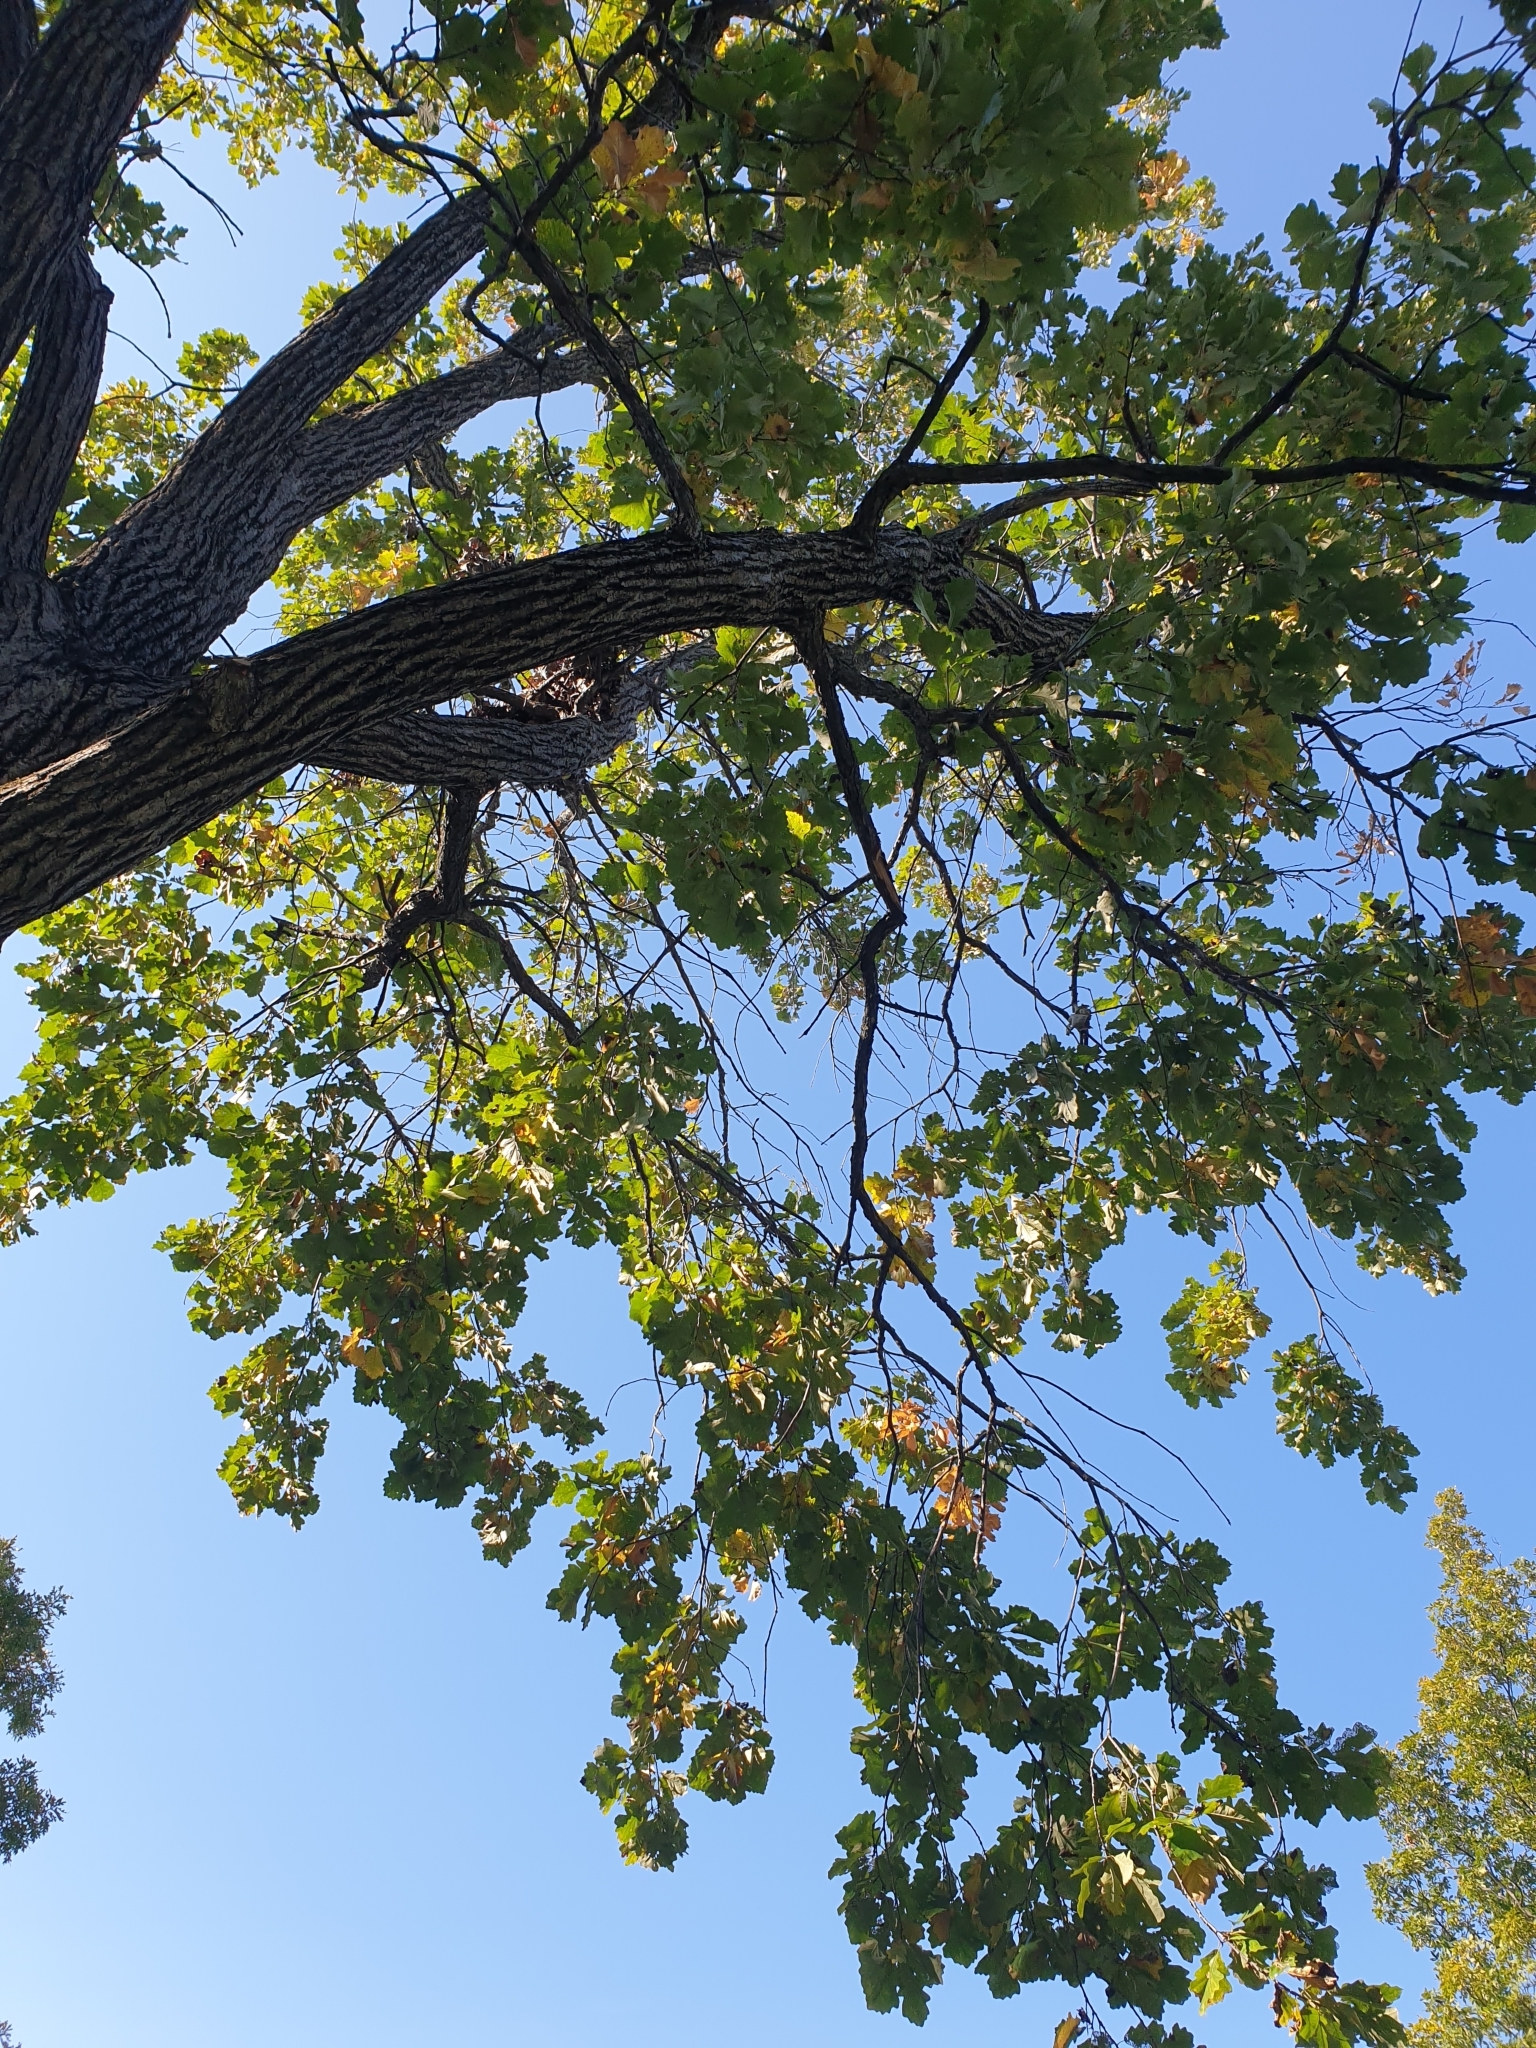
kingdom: Plantae
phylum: Tracheophyta
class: Magnoliopsida
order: Fagales
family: Fagaceae
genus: Quercus
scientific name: Quercus bicolor
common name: Swamp white oak
